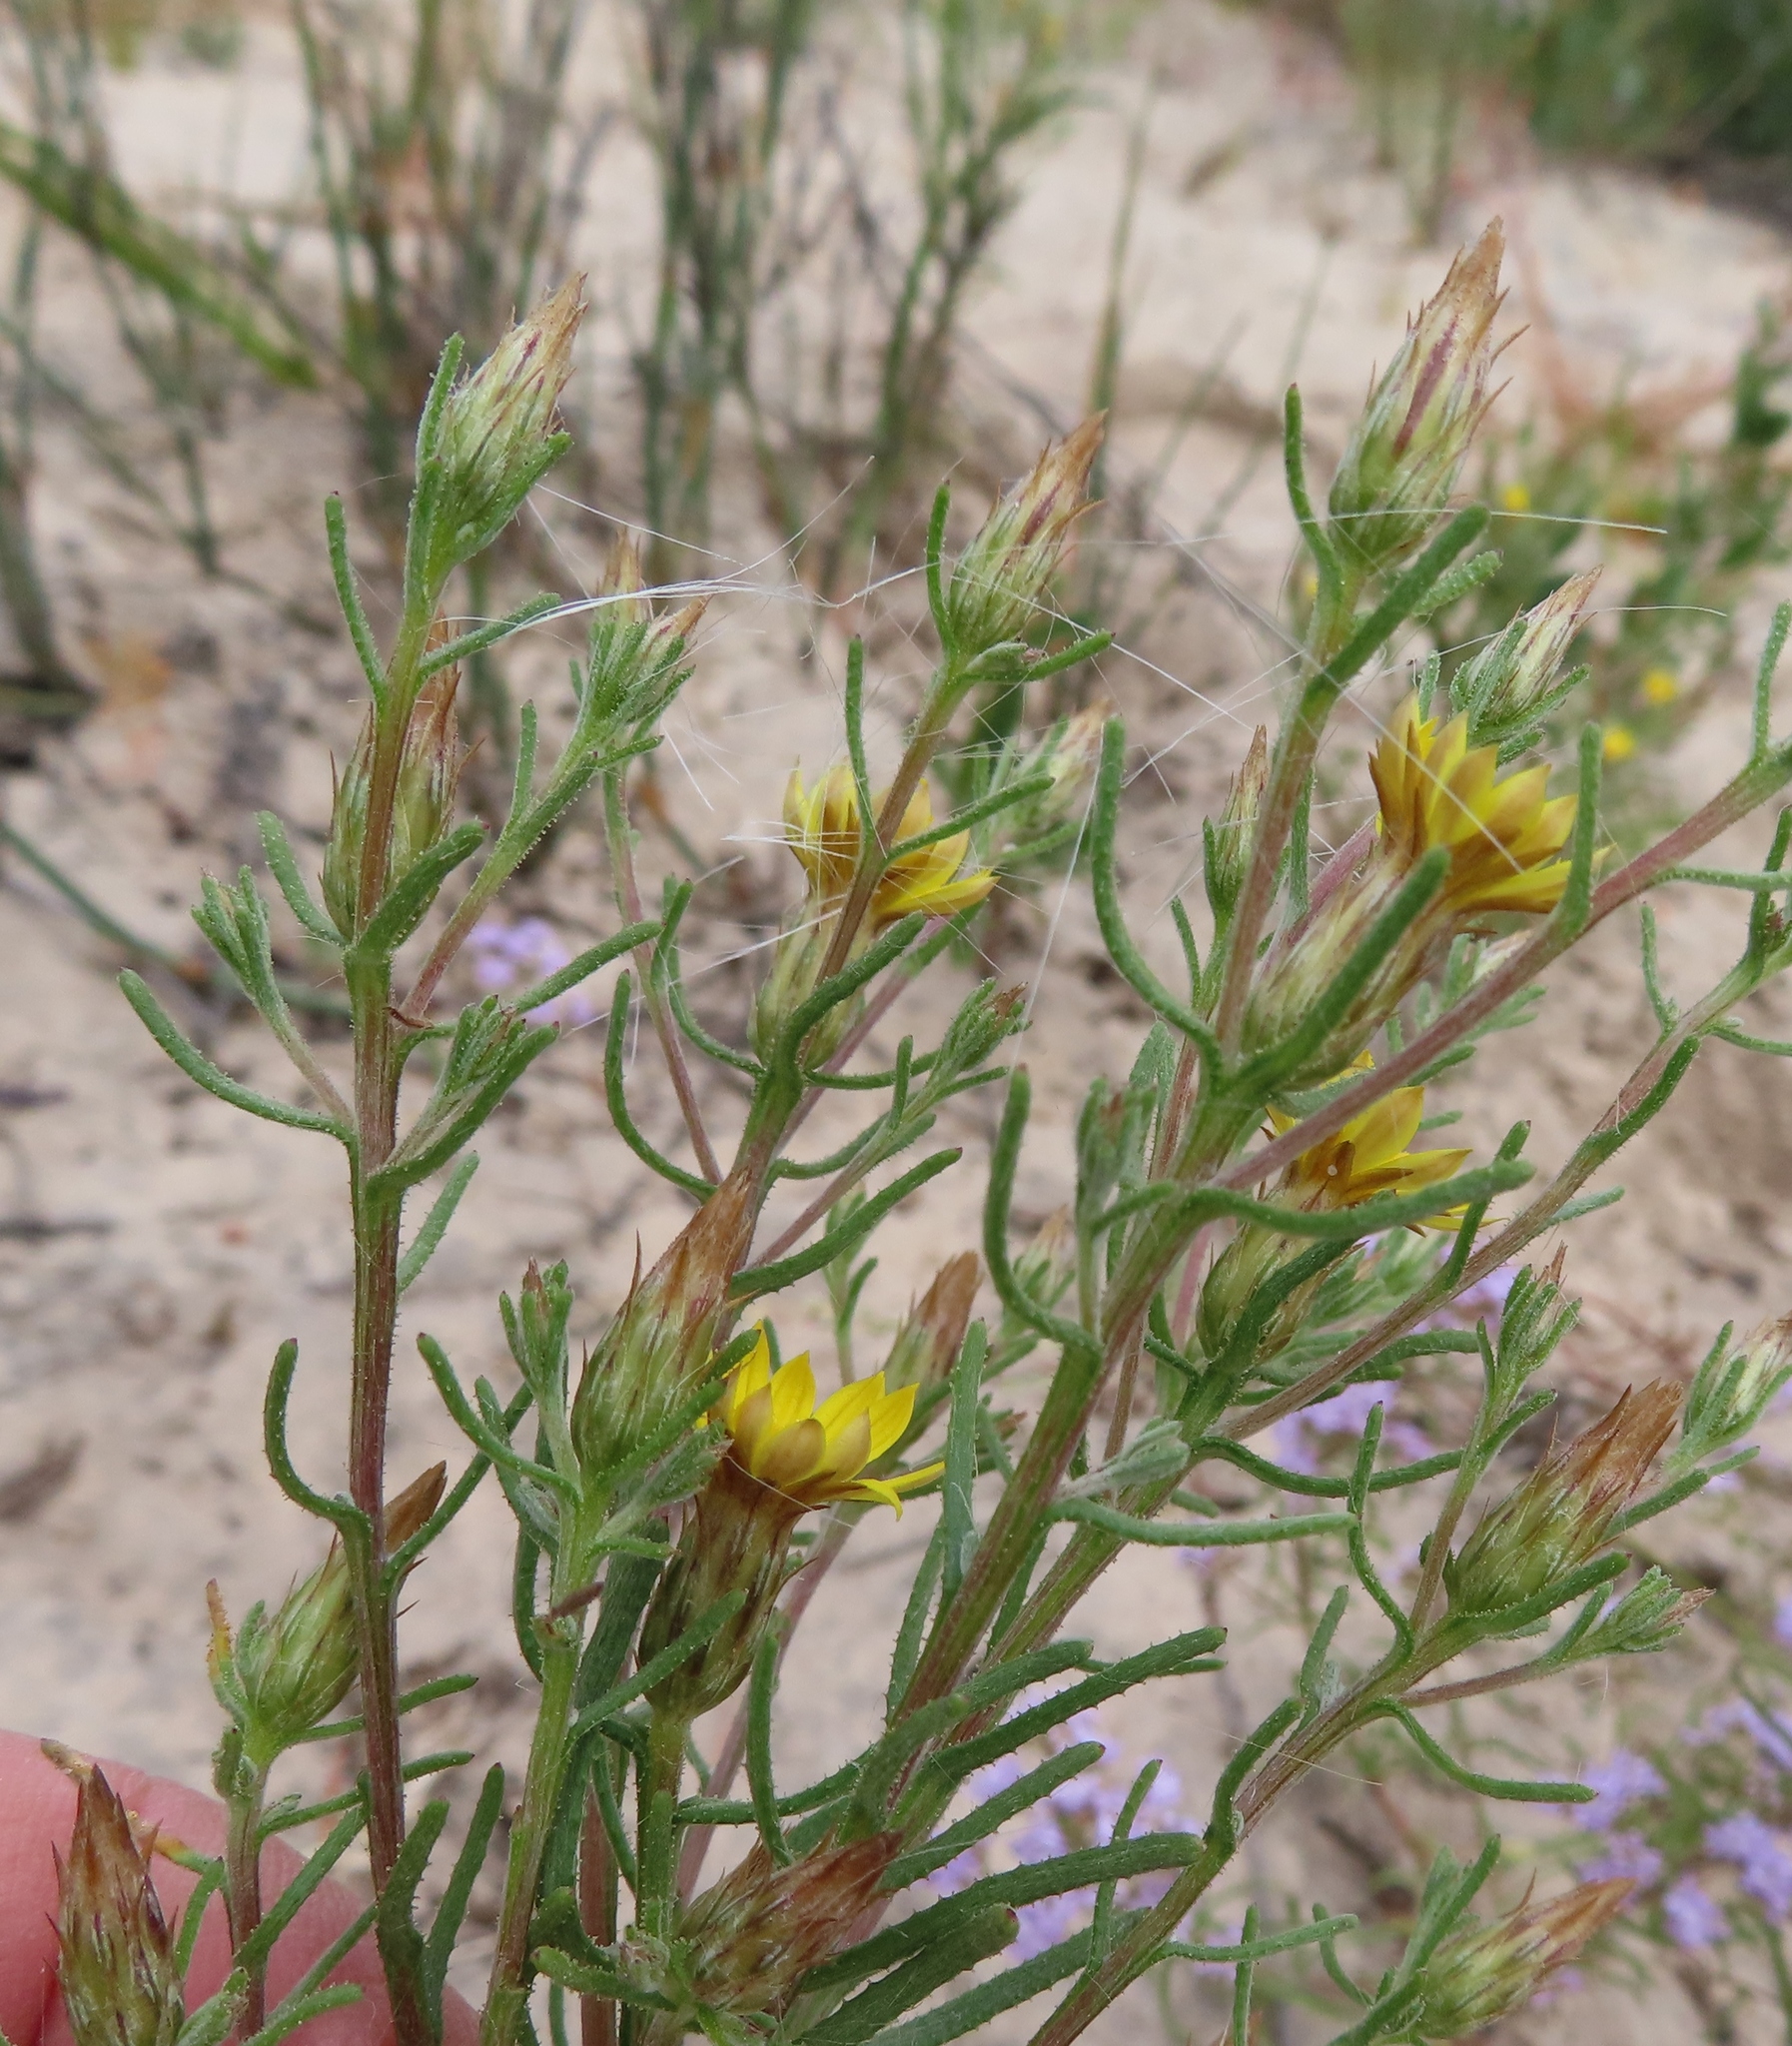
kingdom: Plantae
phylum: Tracheophyta
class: Magnoliopsida
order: Asterales
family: Asteraceae
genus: Nestlera
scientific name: Nestlera biennis
